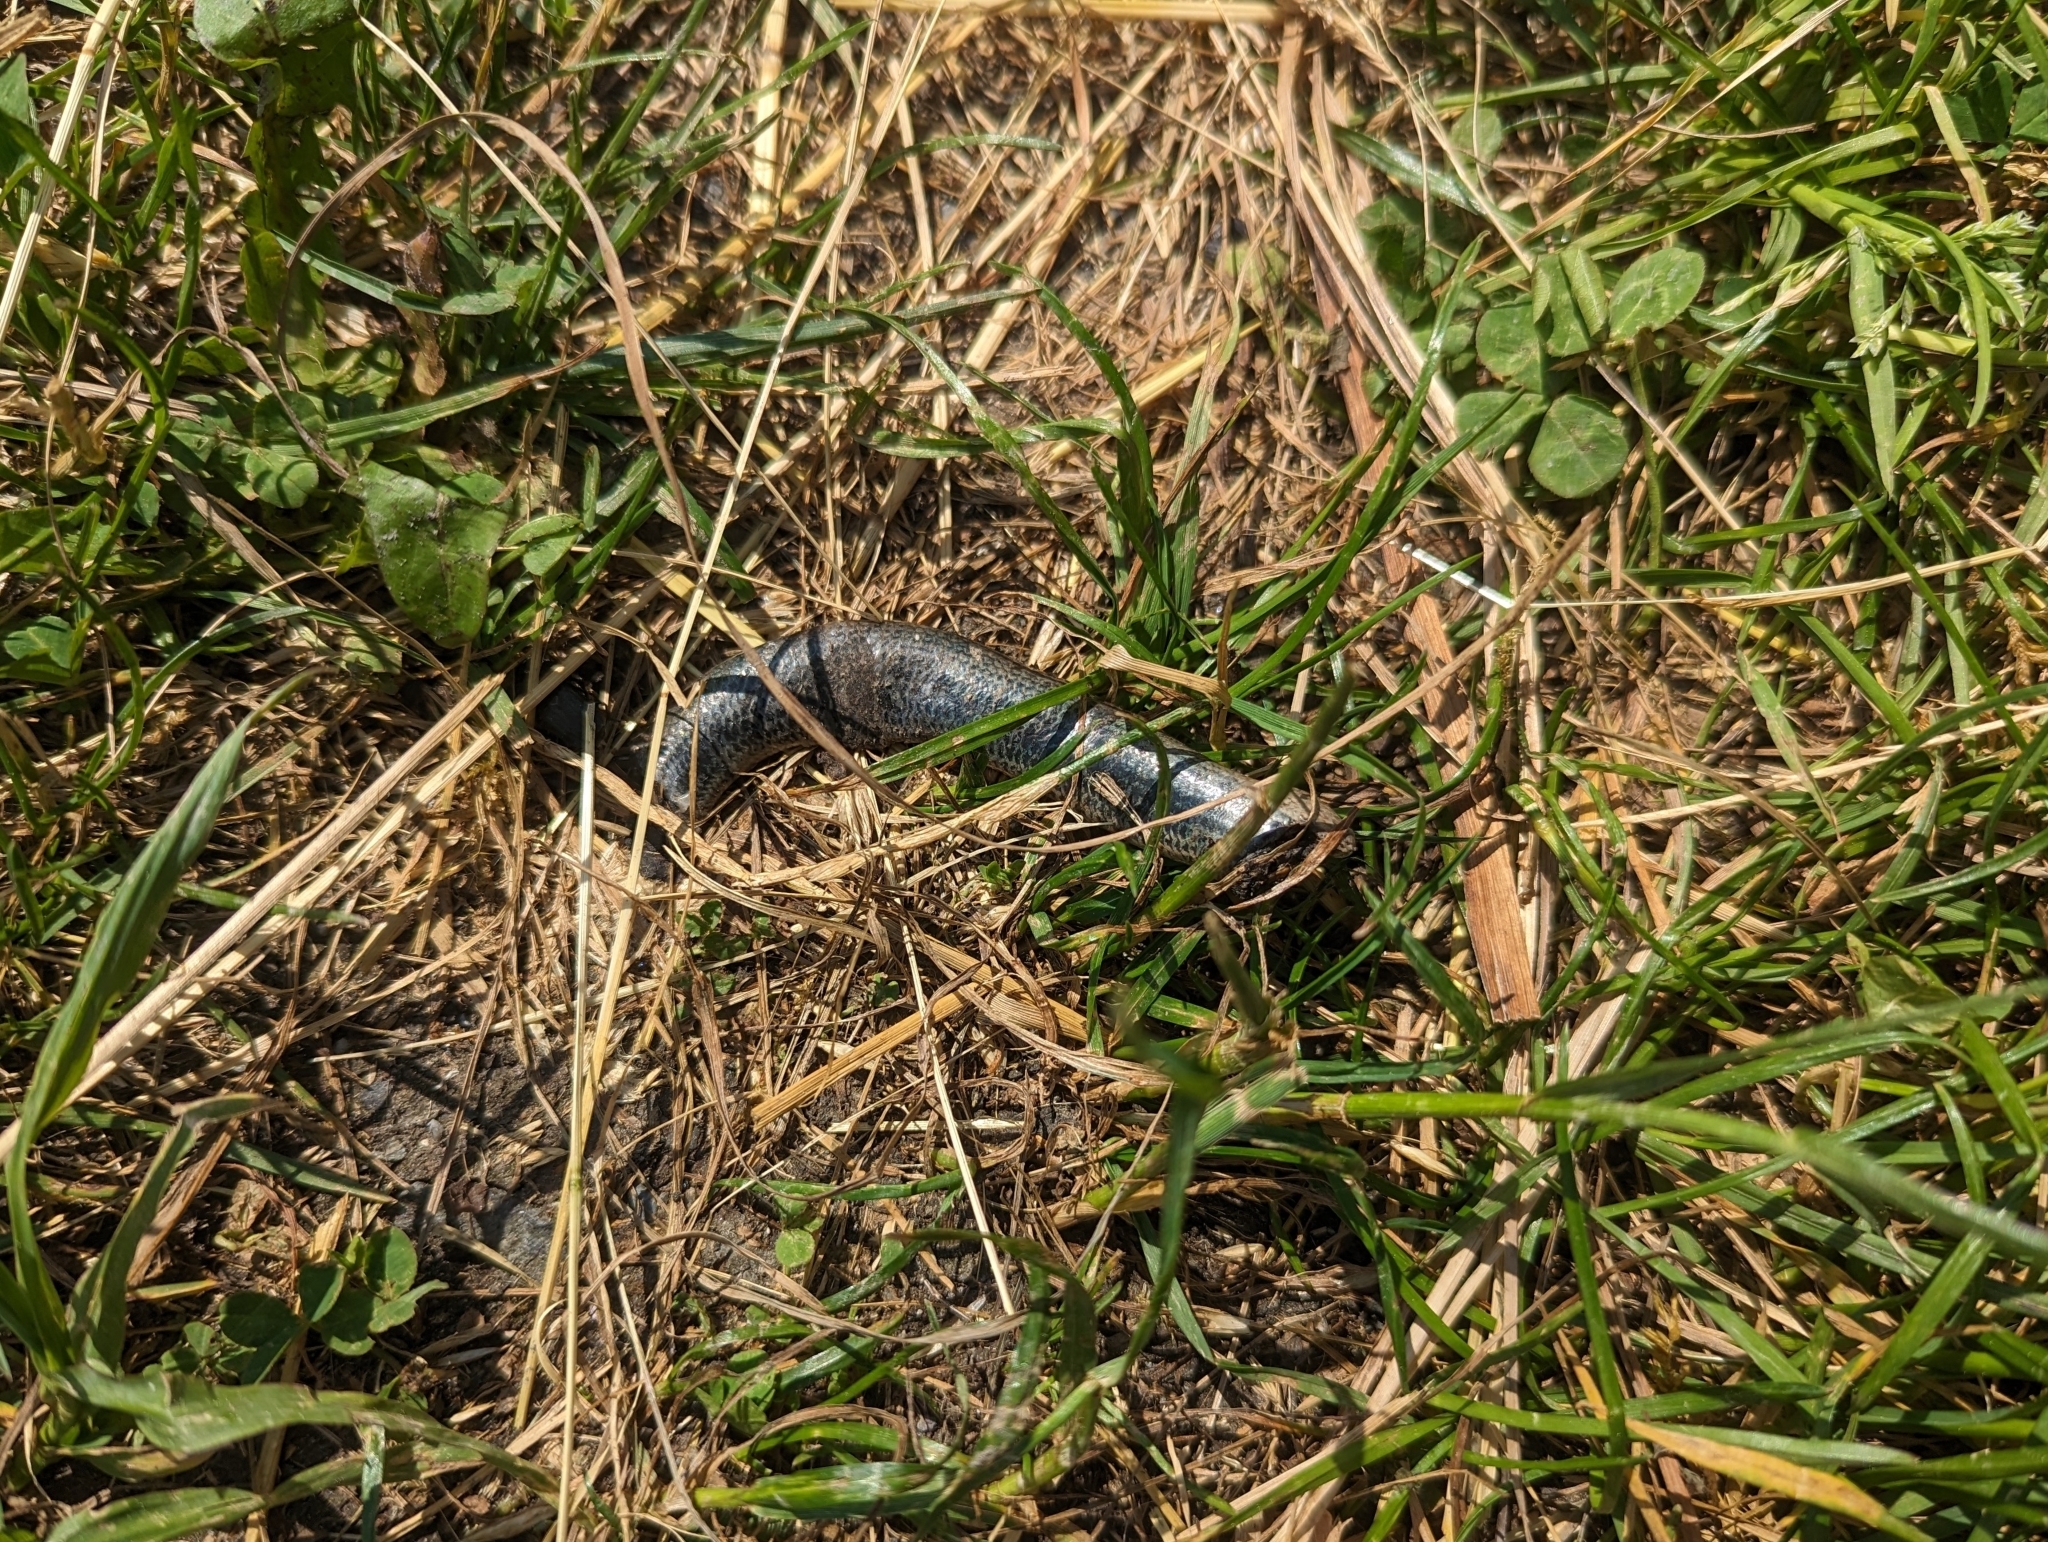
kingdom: Animalia
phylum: Chordata
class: Squamata
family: Anguidae
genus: Anguis
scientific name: Anguis fragilis
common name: Slow worm
